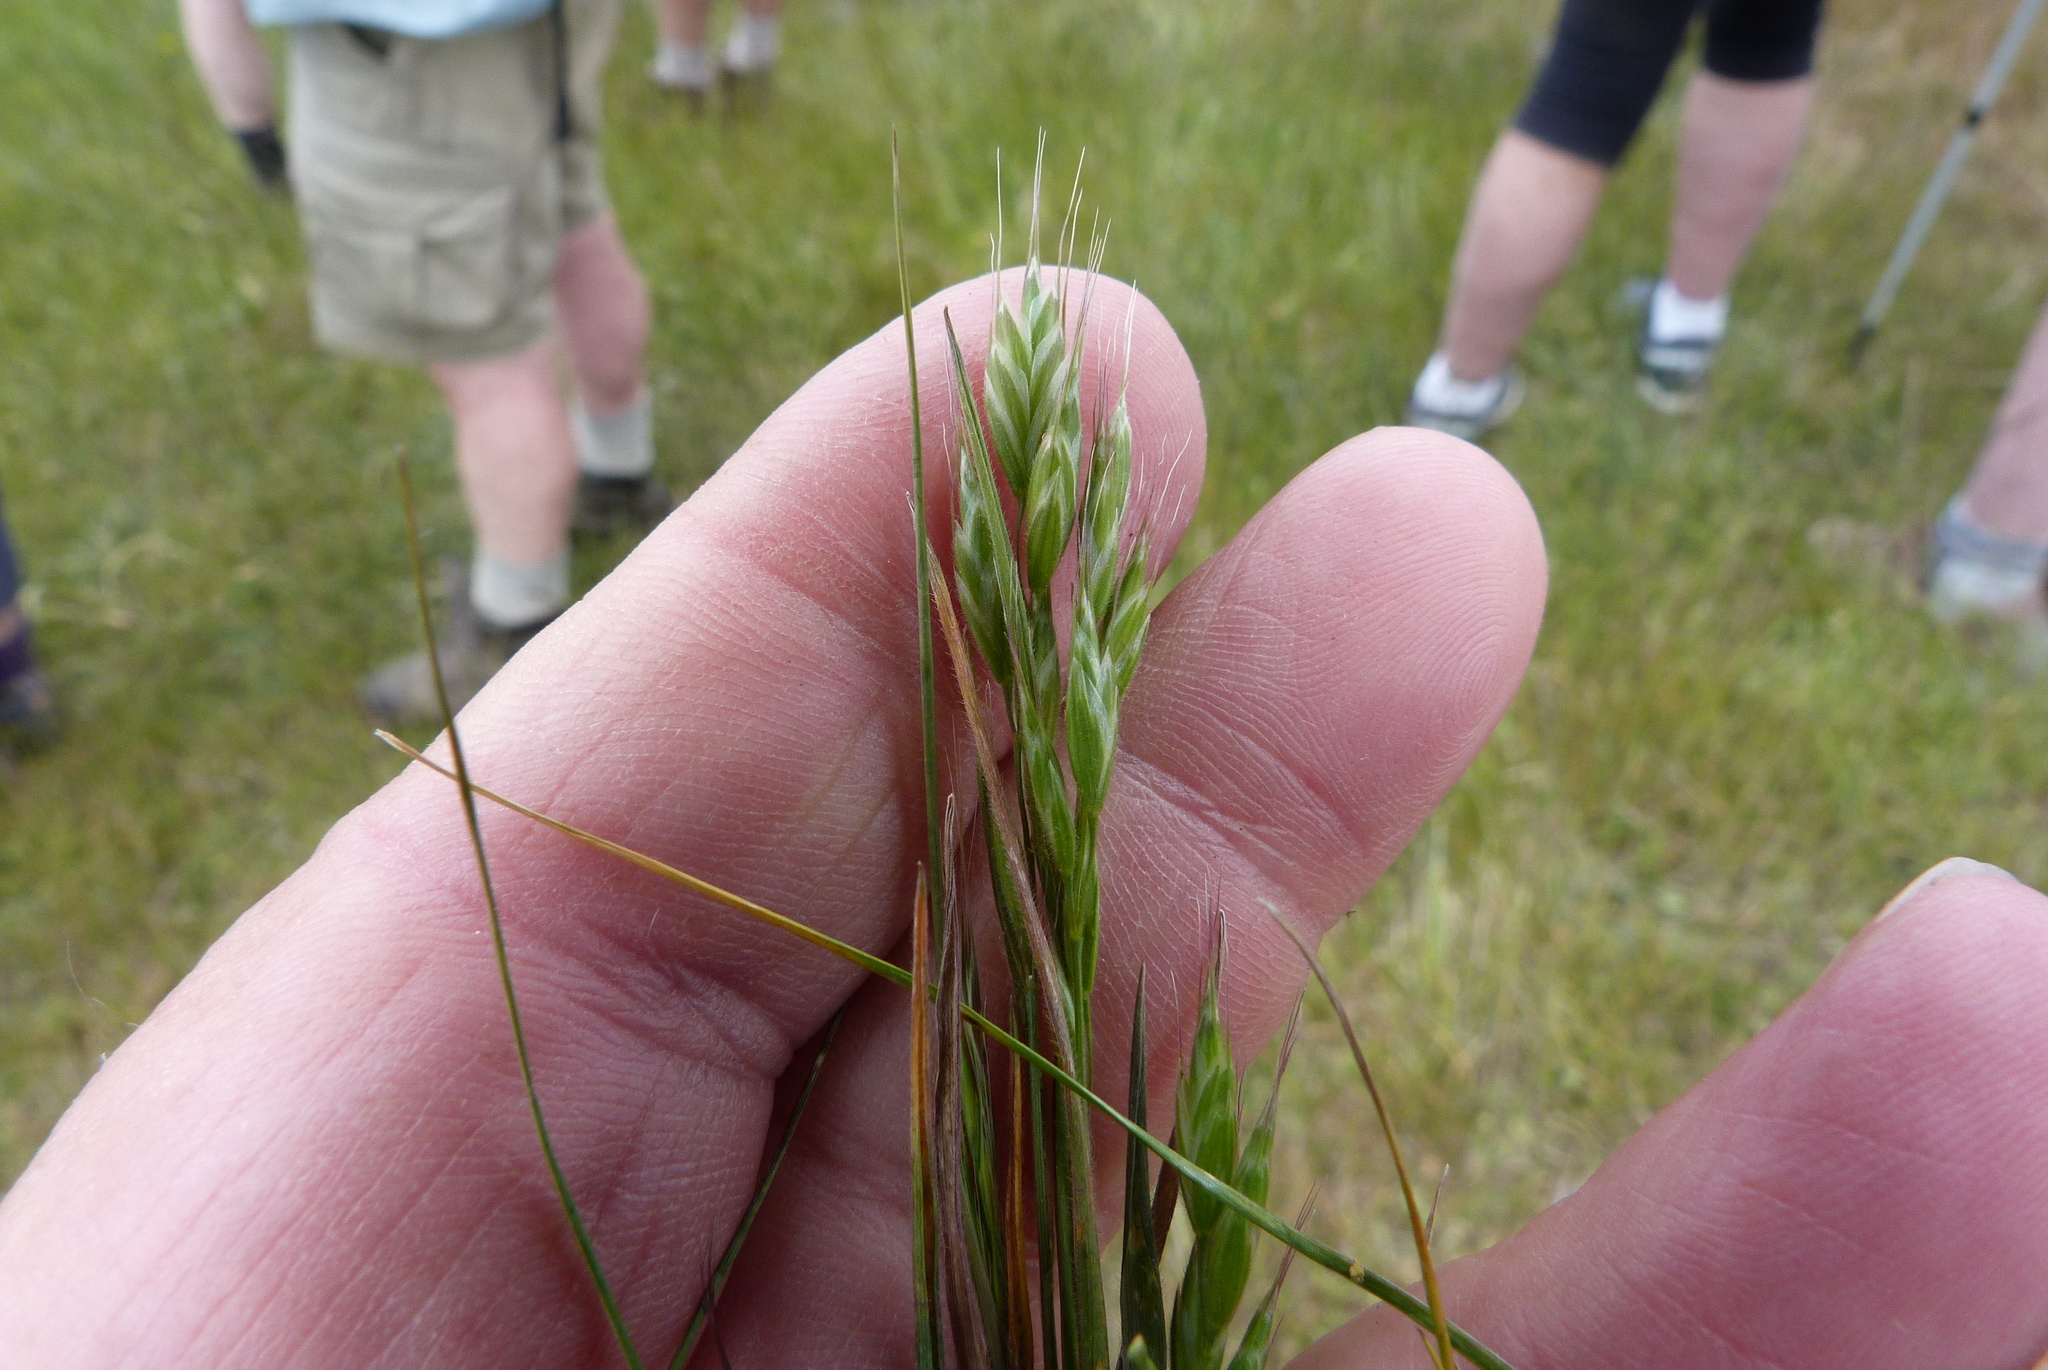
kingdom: Plantae
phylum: Tracheophyta
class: Liliopsida
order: Poales
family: Poaceae
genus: Bromus
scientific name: Bromus hordeaceus
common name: Soft brome
